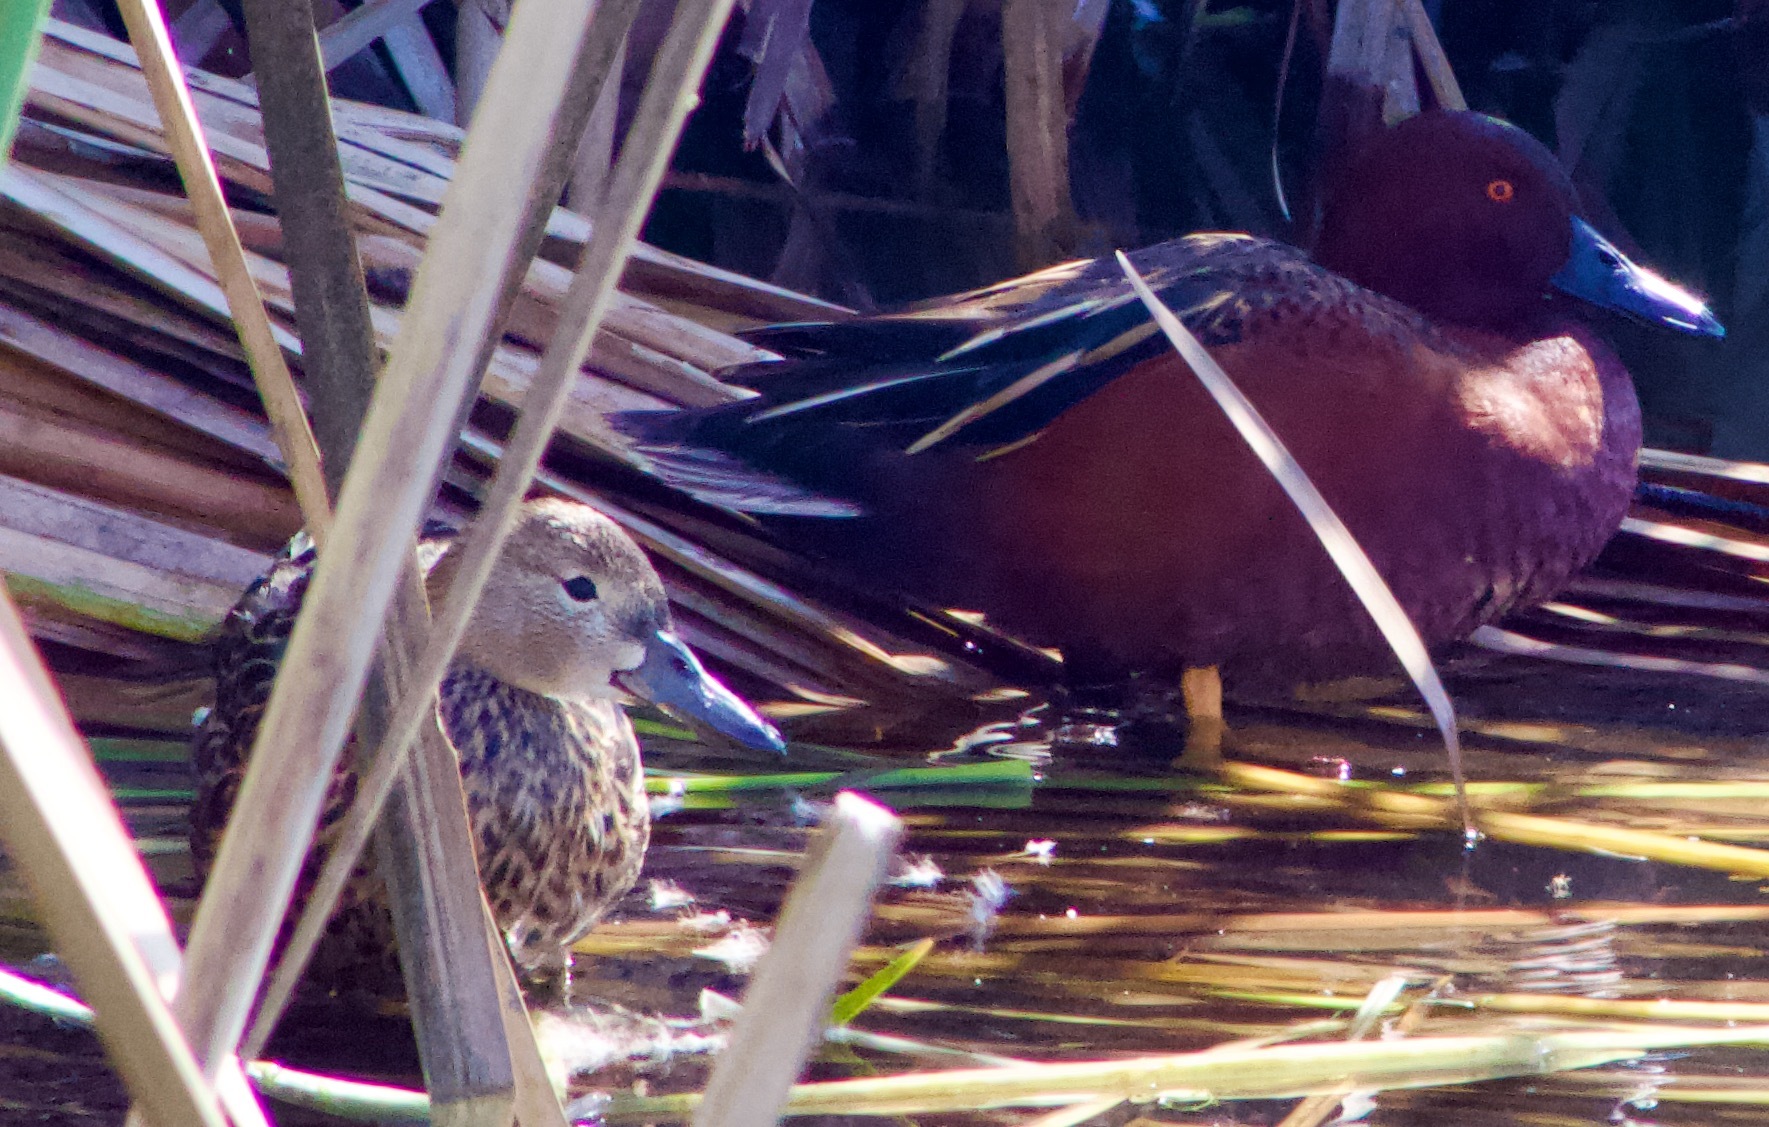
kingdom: Animalia
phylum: Chordata
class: Aves
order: Anseriformes
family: Anatidae
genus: Spatula
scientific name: Spatula cyanoptera
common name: Cinnamon teal
